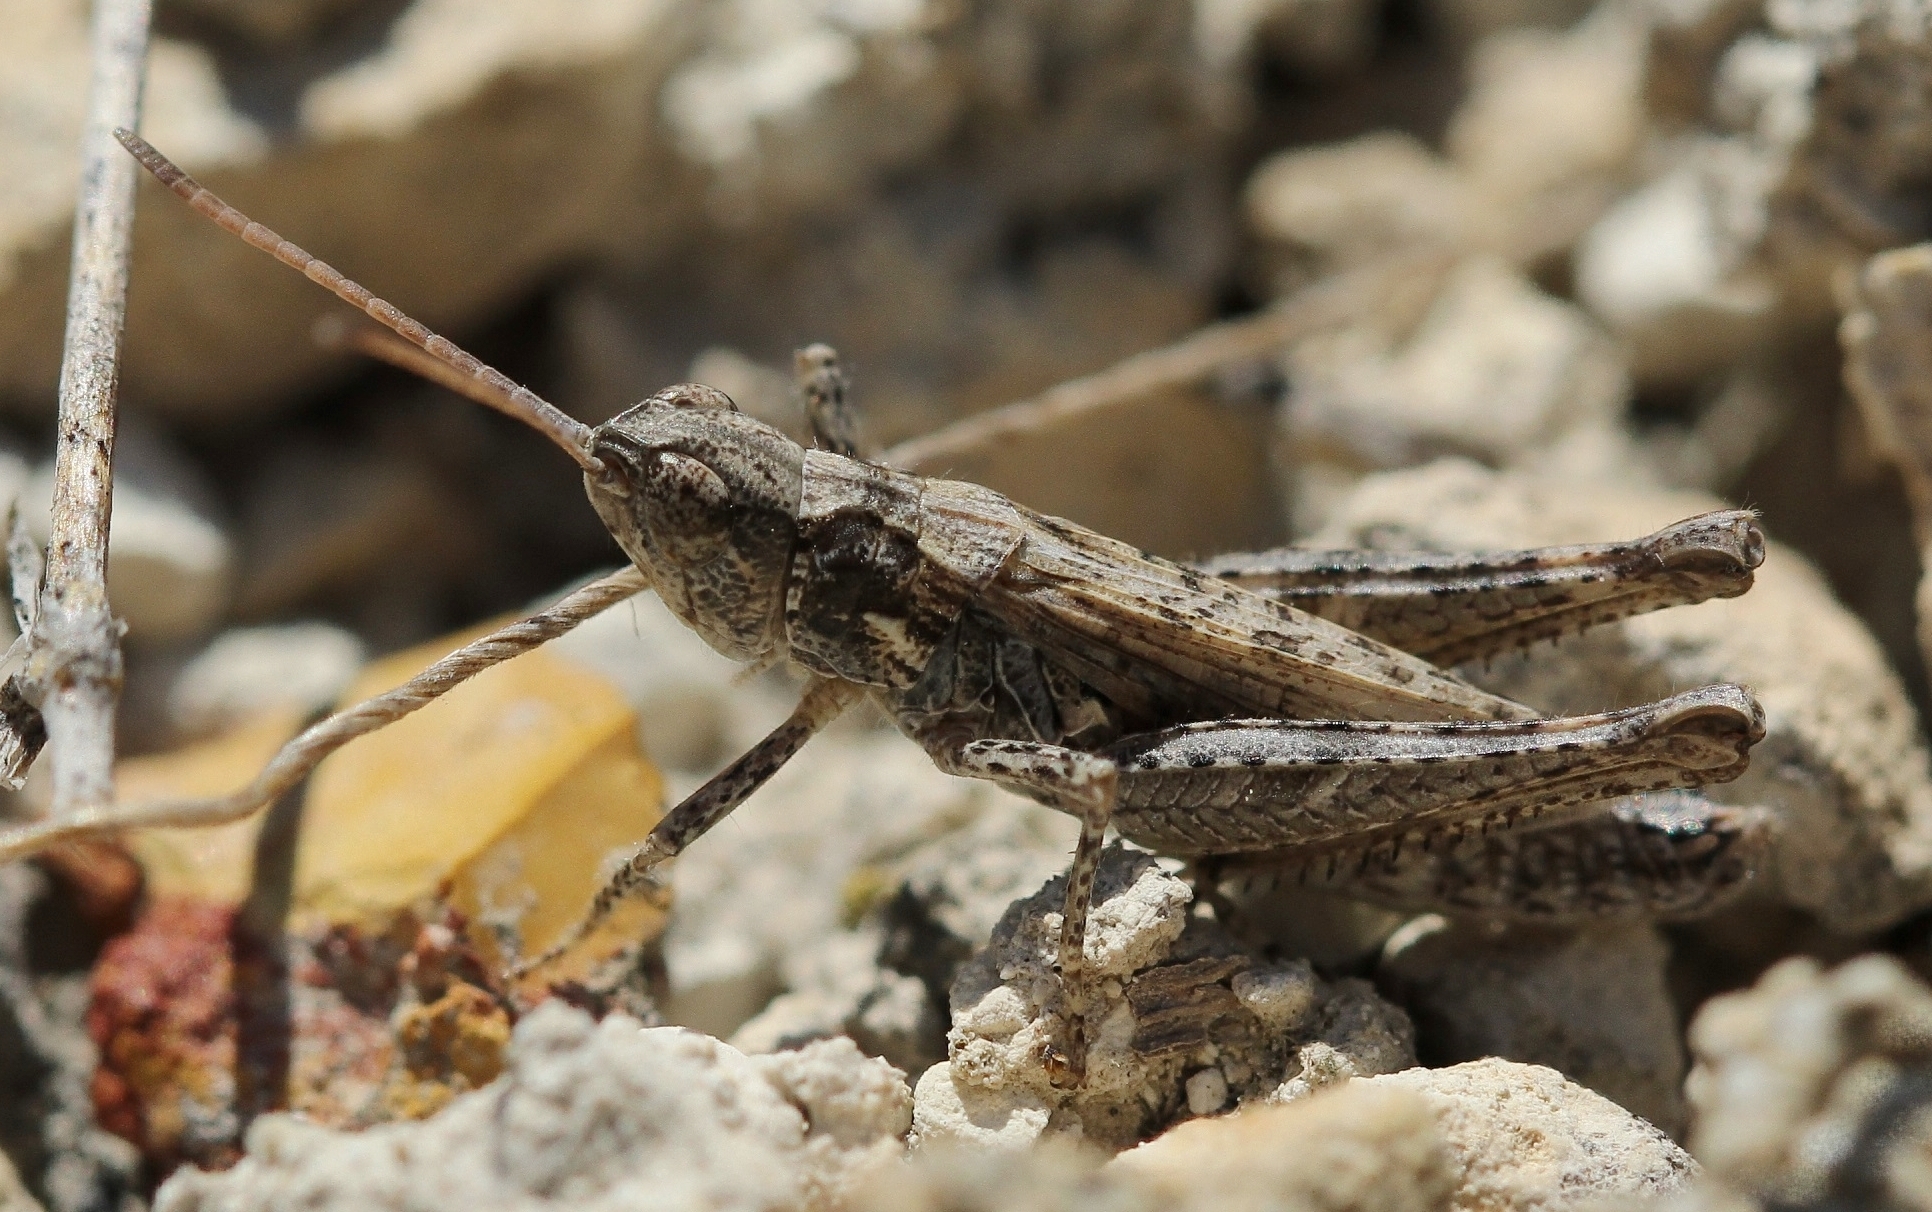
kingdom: Animalia
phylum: Arthropoda
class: Insecta
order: Orthoptera
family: Acrididae
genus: Aeropedellus
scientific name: Aeropedellus volgensis
